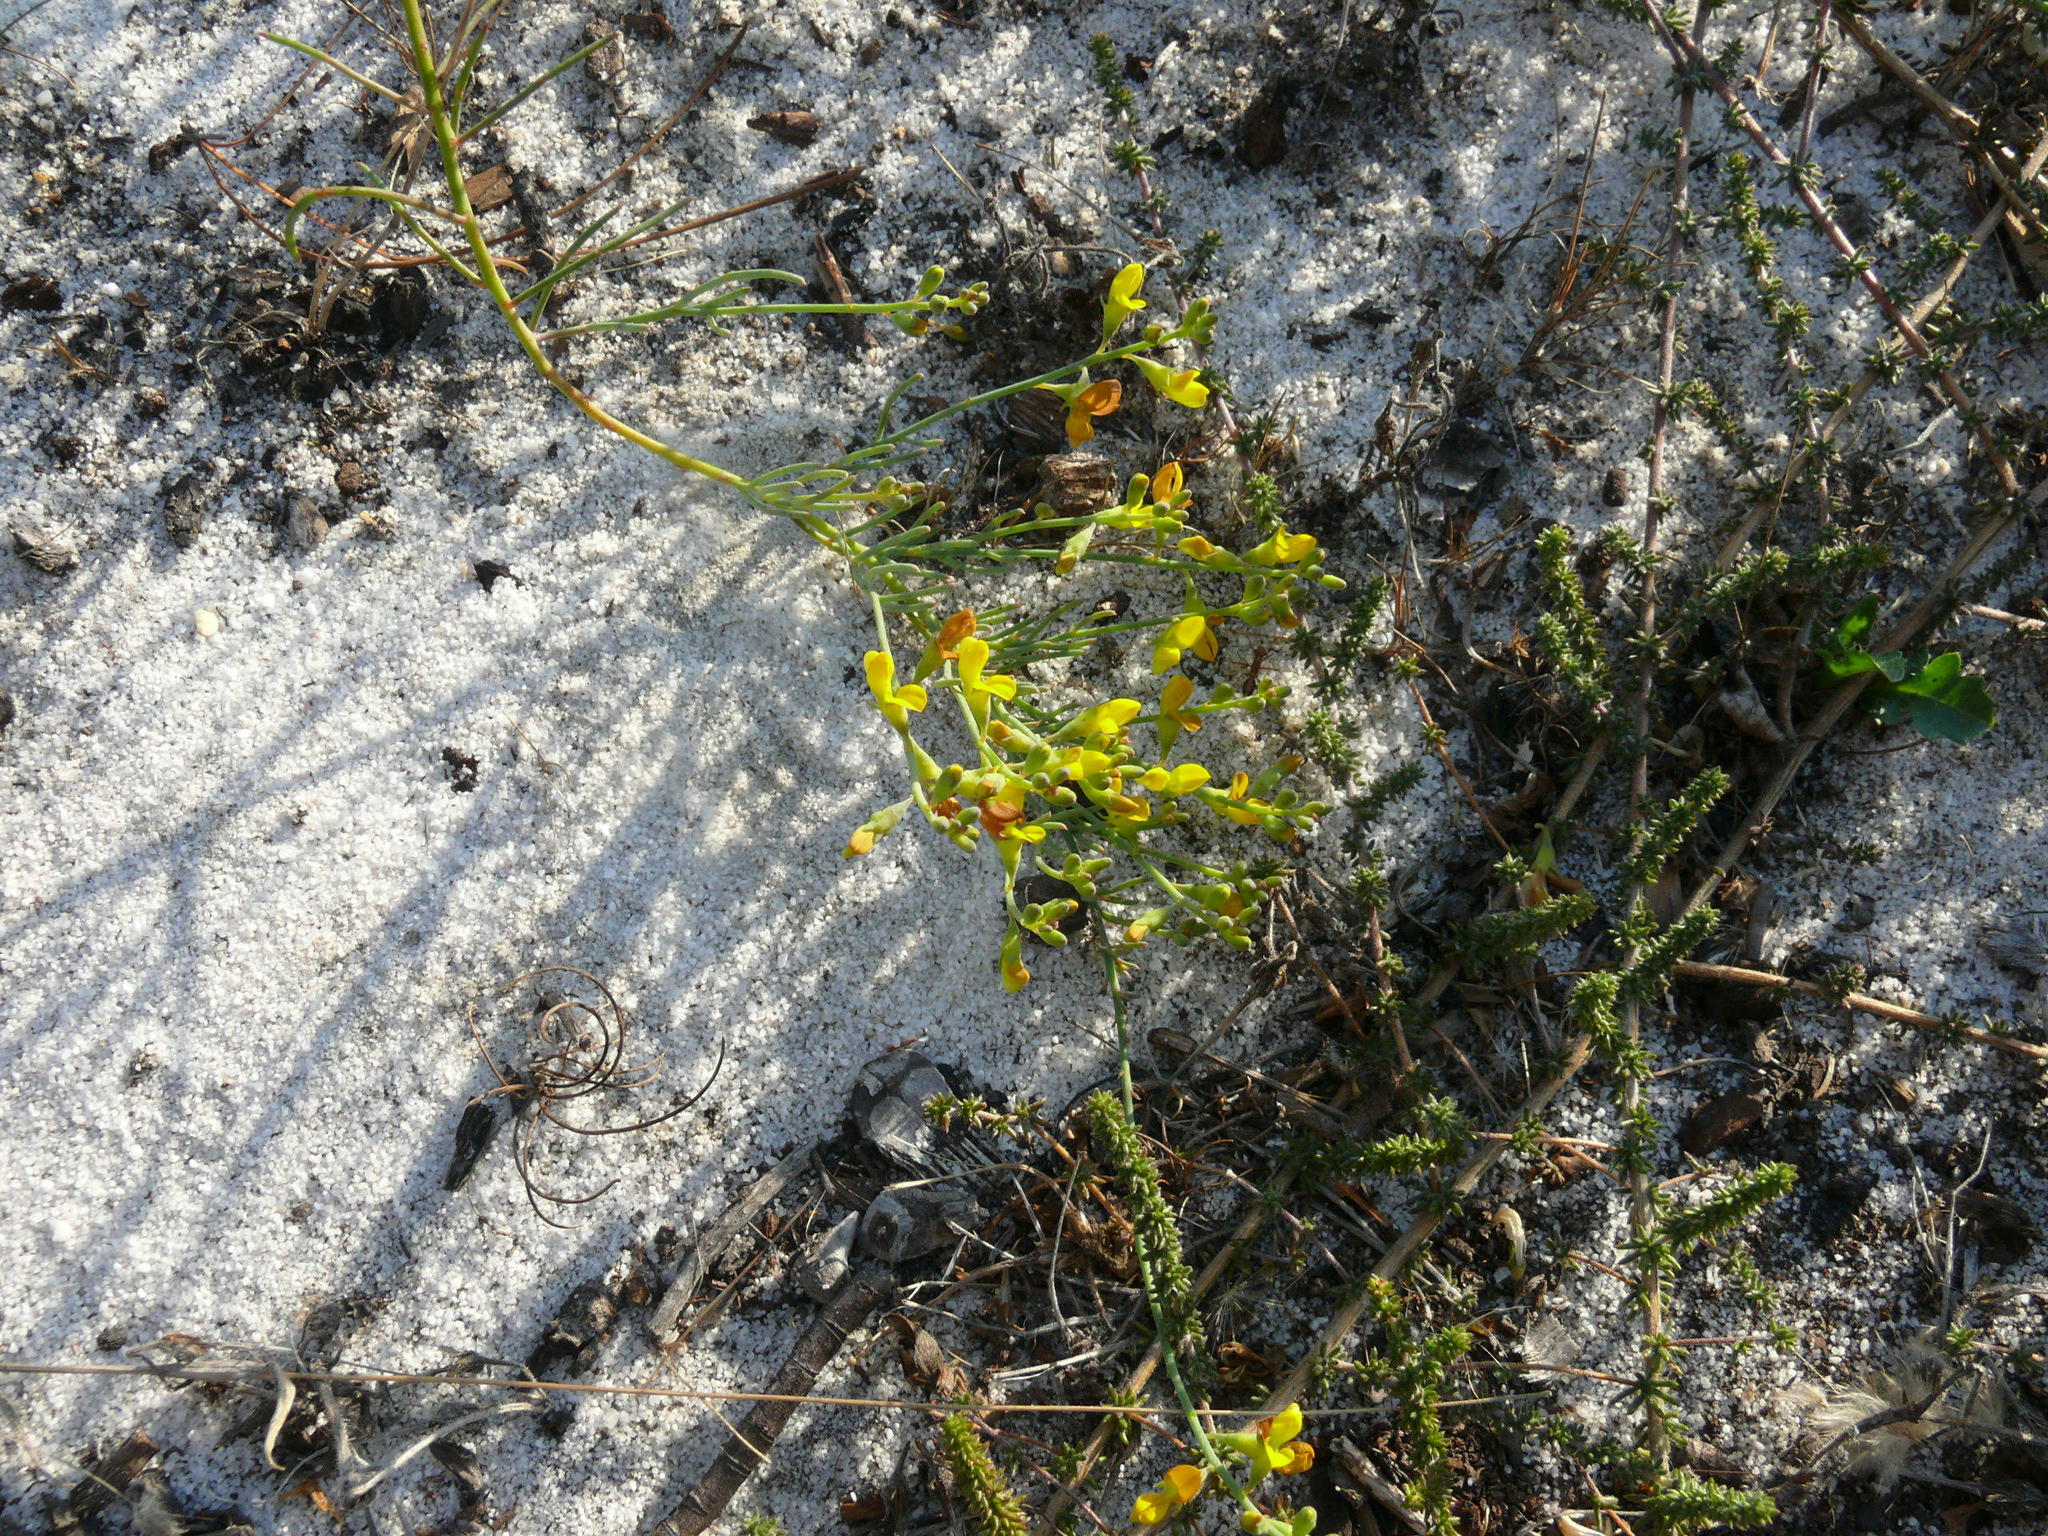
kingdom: Plantae
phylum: Tracheophyta
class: Magnoliopsida
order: Fabales
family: Fabaceae
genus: Lebeckia
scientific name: Lebeckia contaminata
